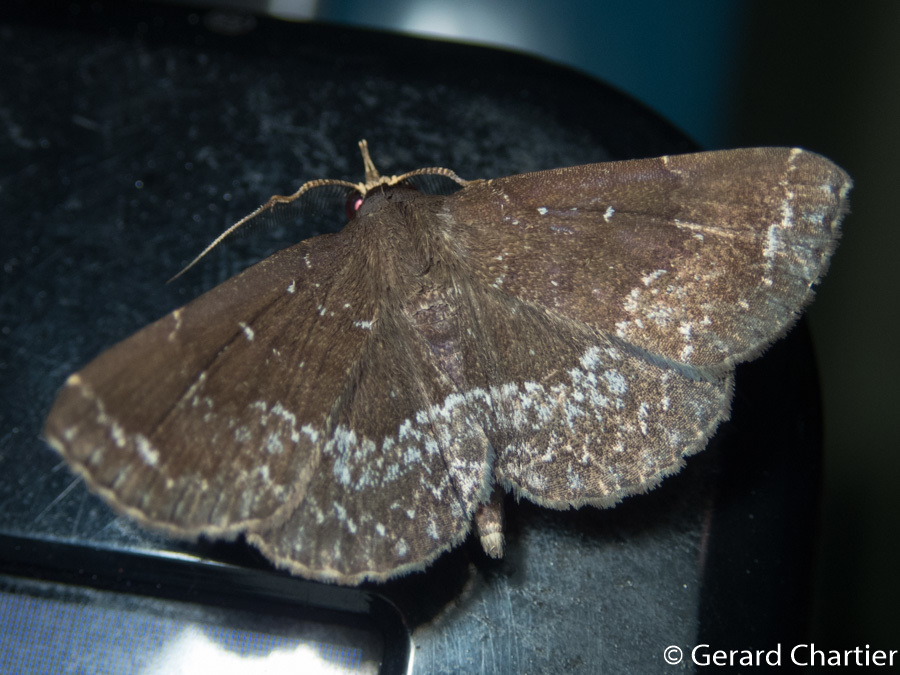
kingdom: Animalia
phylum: Arthropoda
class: Insecta
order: Lepidoptera
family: Erebidae
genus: Adrapsa
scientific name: Adrapsa geometroides
